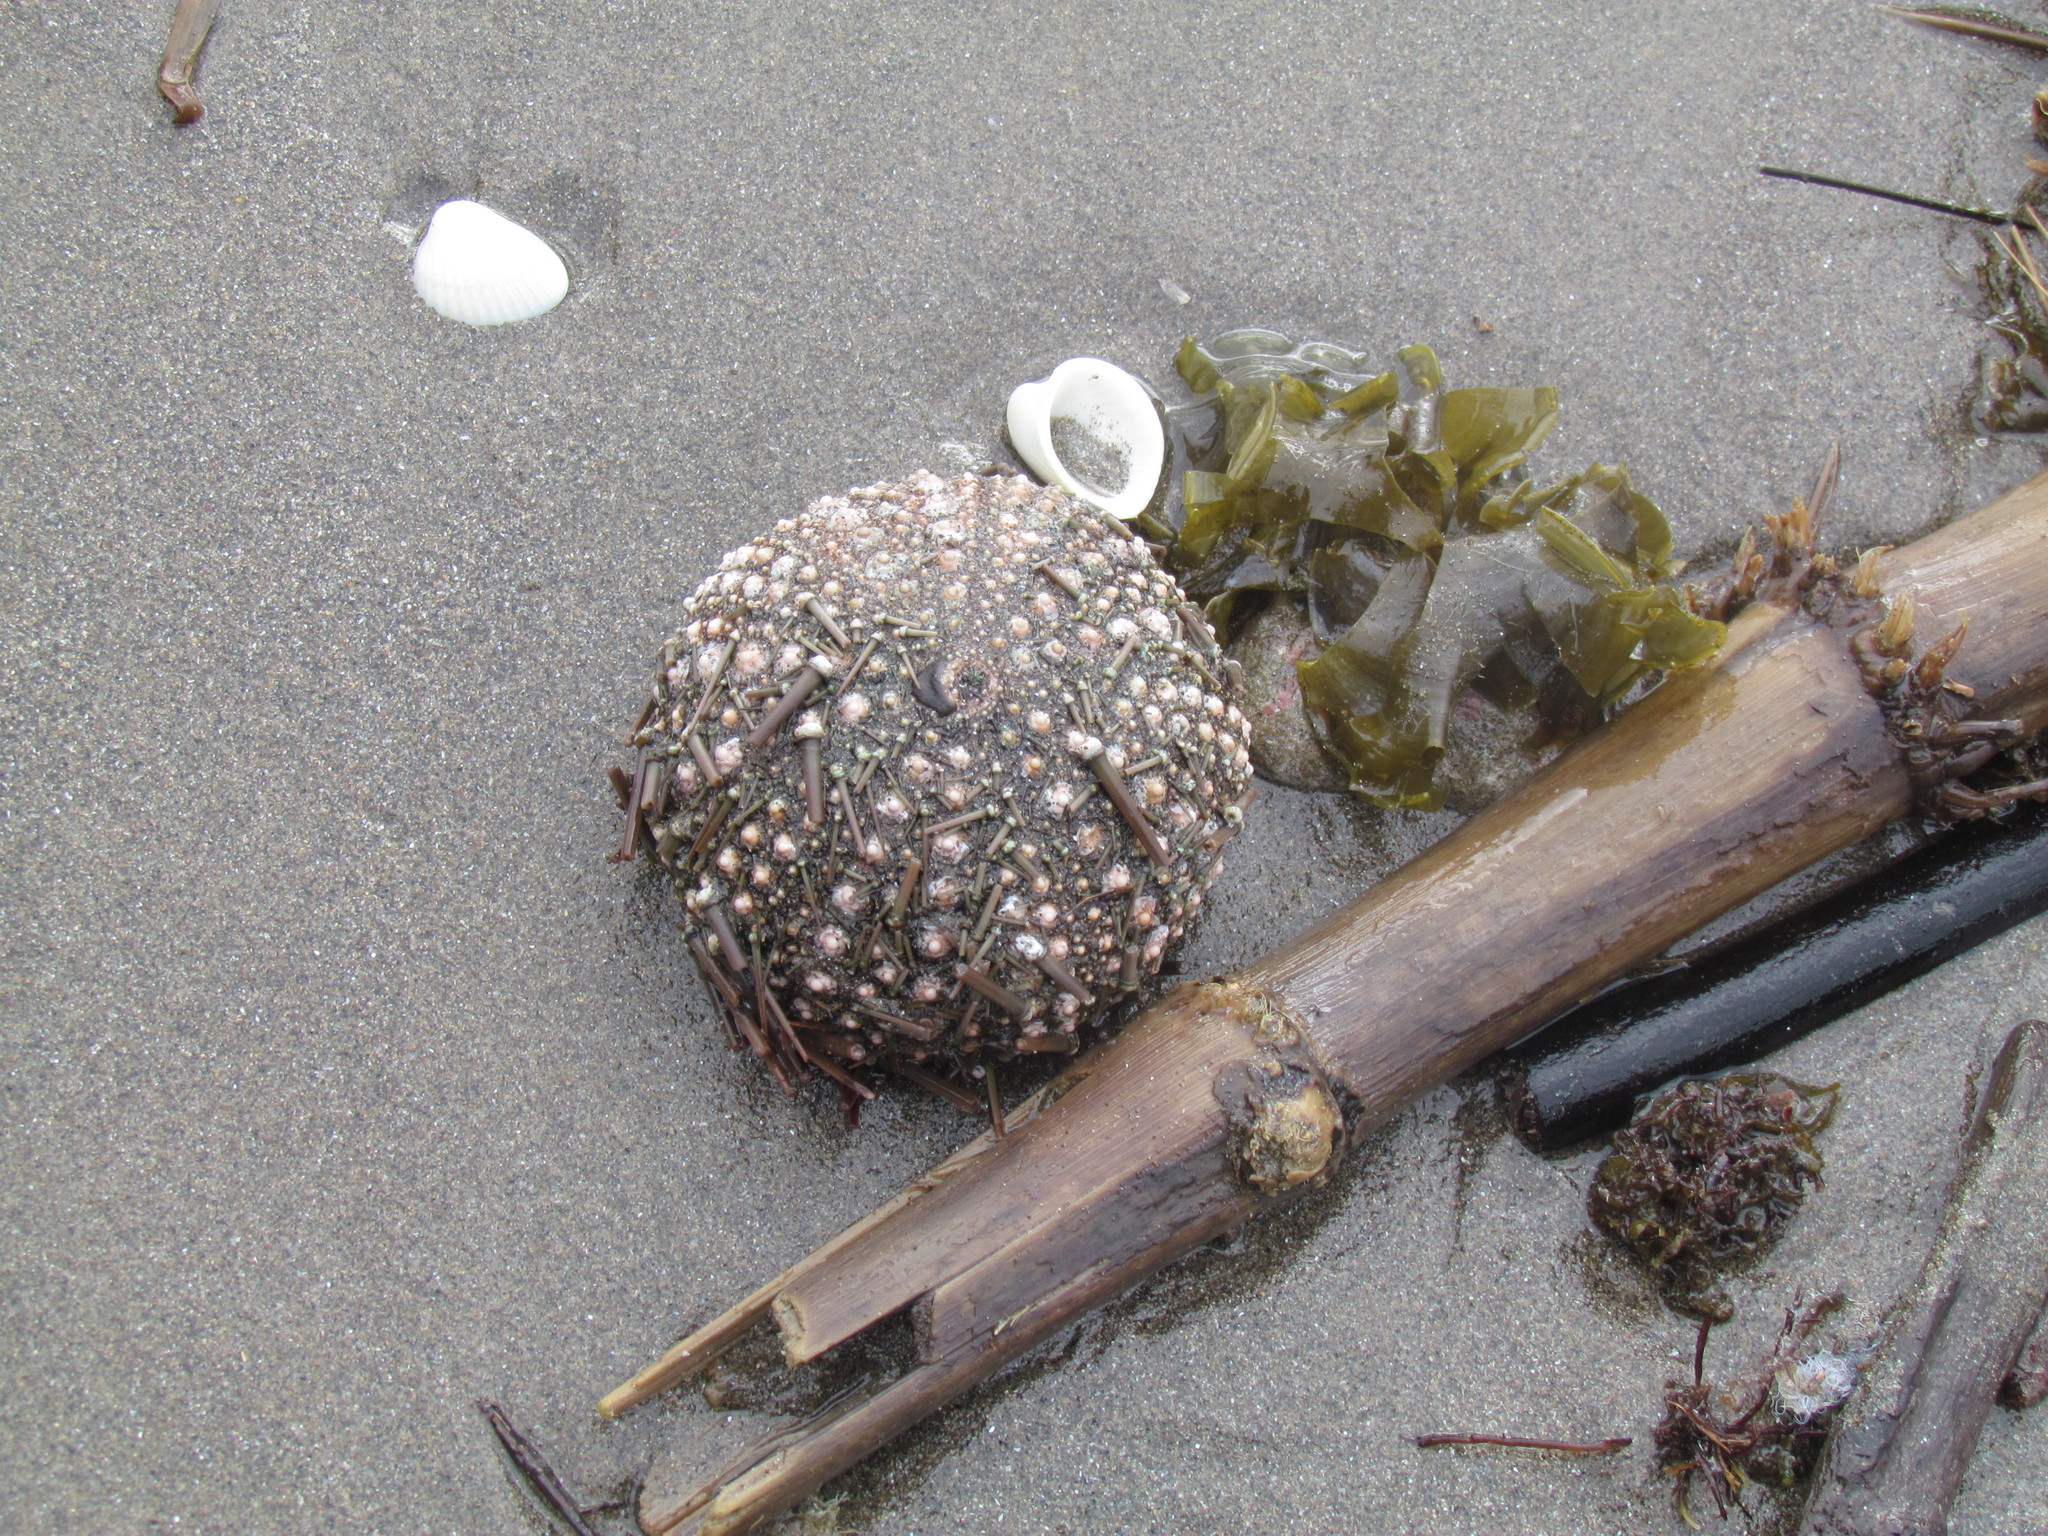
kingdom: Animalia
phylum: Echinodermata
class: Echinoidea
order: Camarodonta
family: Toxopneustidae
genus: Lytechinus
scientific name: Lytechinus variegatus
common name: Variegated urchin
